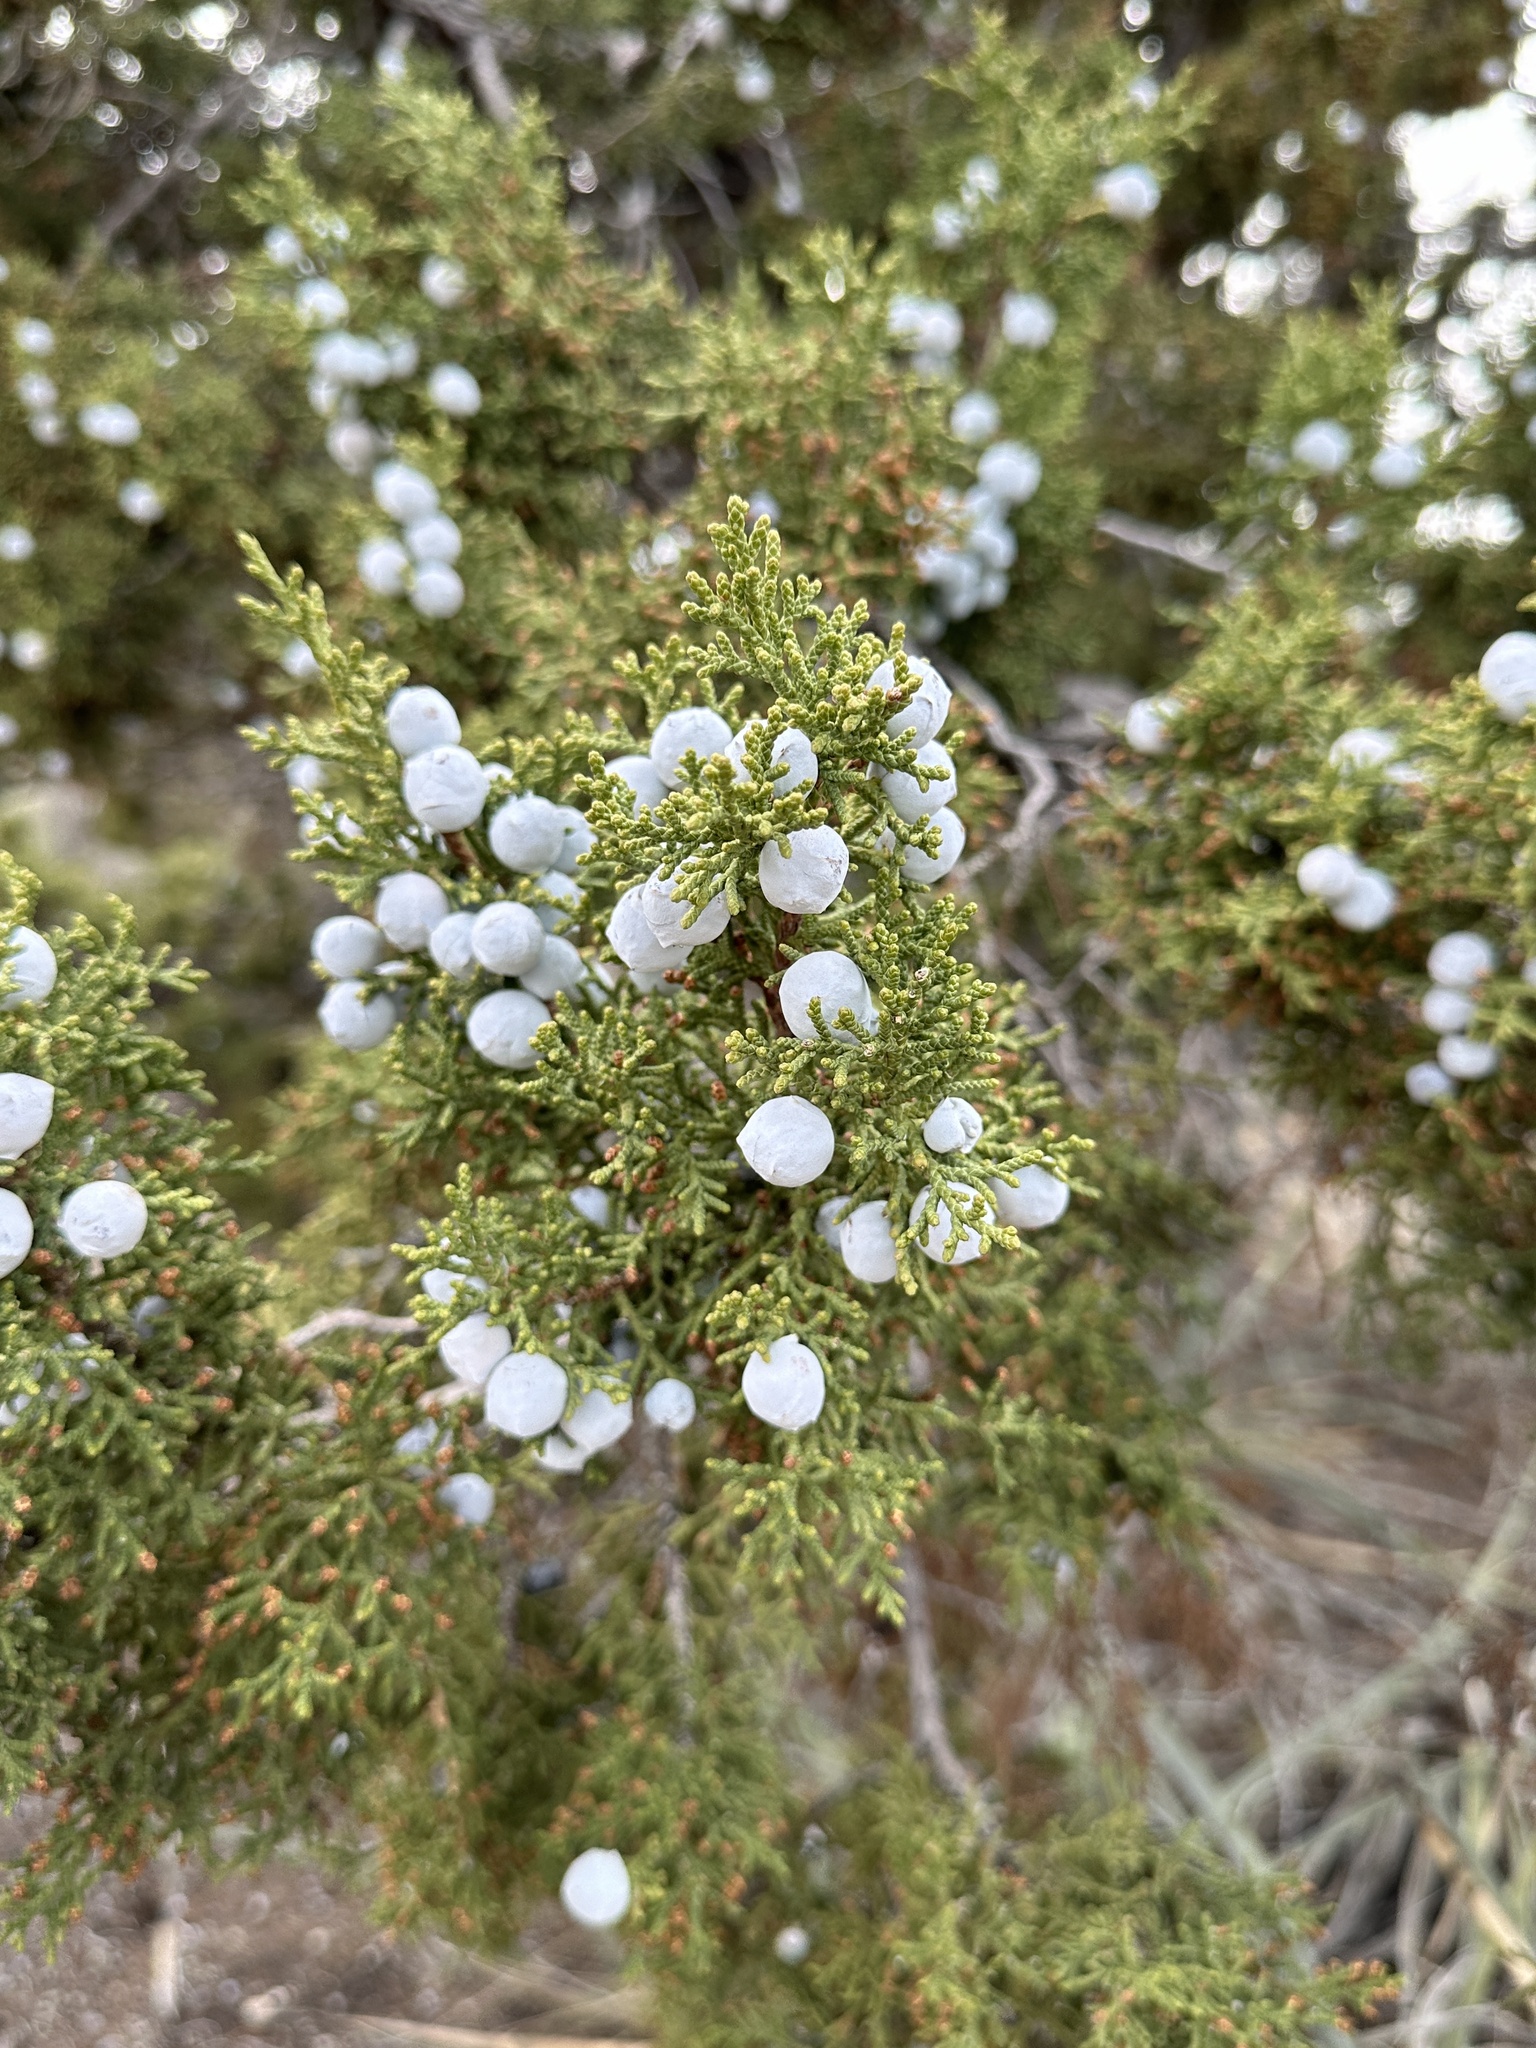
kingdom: Plantae
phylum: Tracheophyta
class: Pinopsida
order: Pinales
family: Cupressaceae
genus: Juniperus
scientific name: Juniperus osteosperma
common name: Utah juniper
